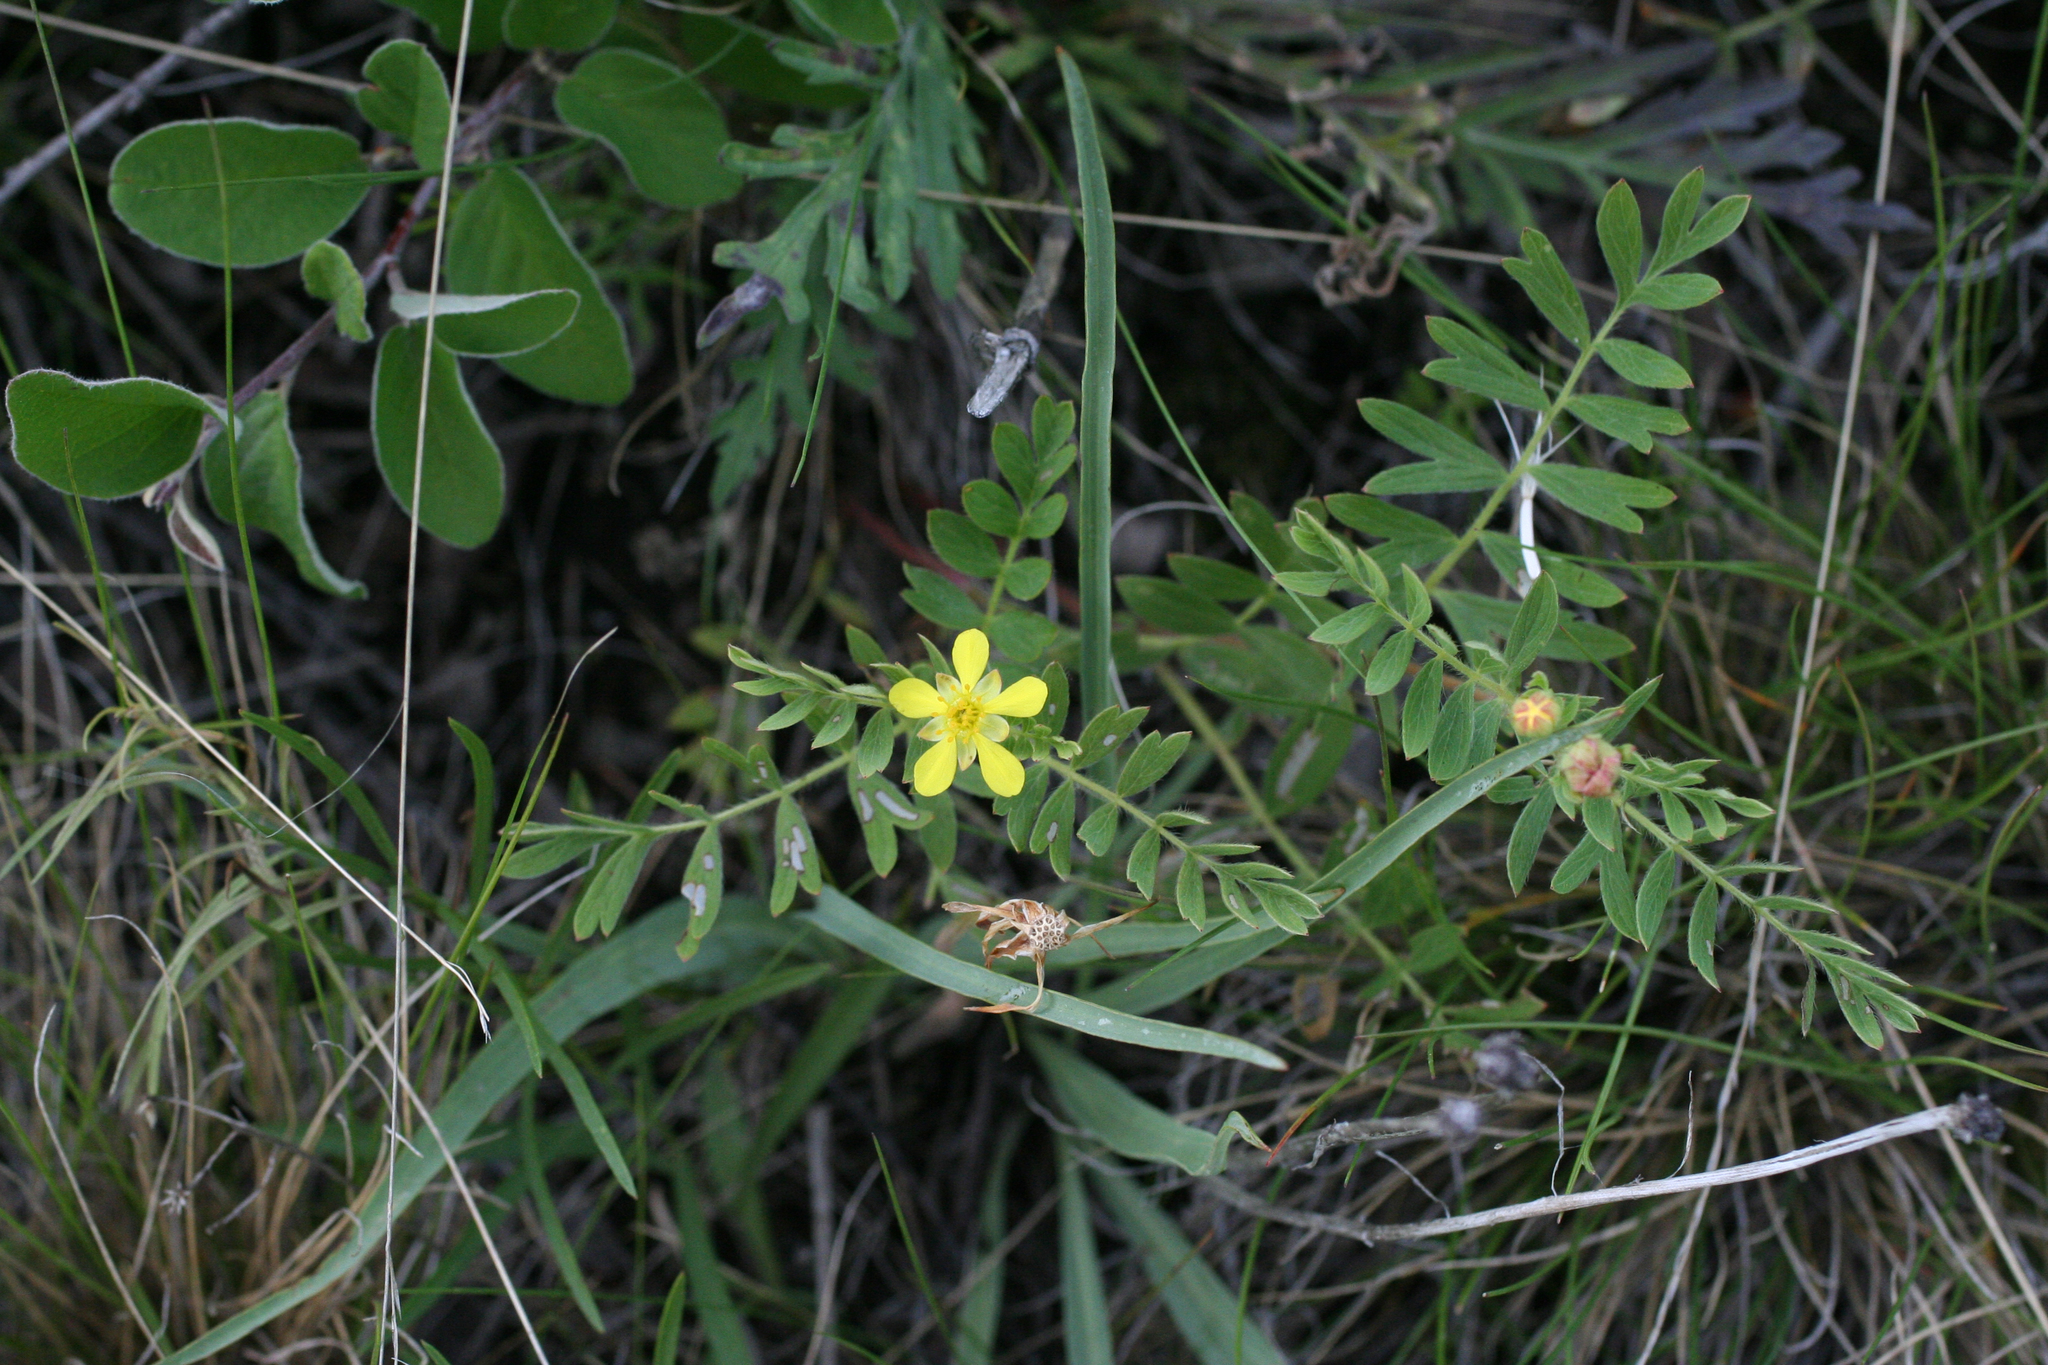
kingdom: Plantae
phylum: Tracheophyta
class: Magnoliopsida
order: Rosales
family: Rosaceae
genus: Sibbaldianthe
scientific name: Sibbaldianthe bifurca
